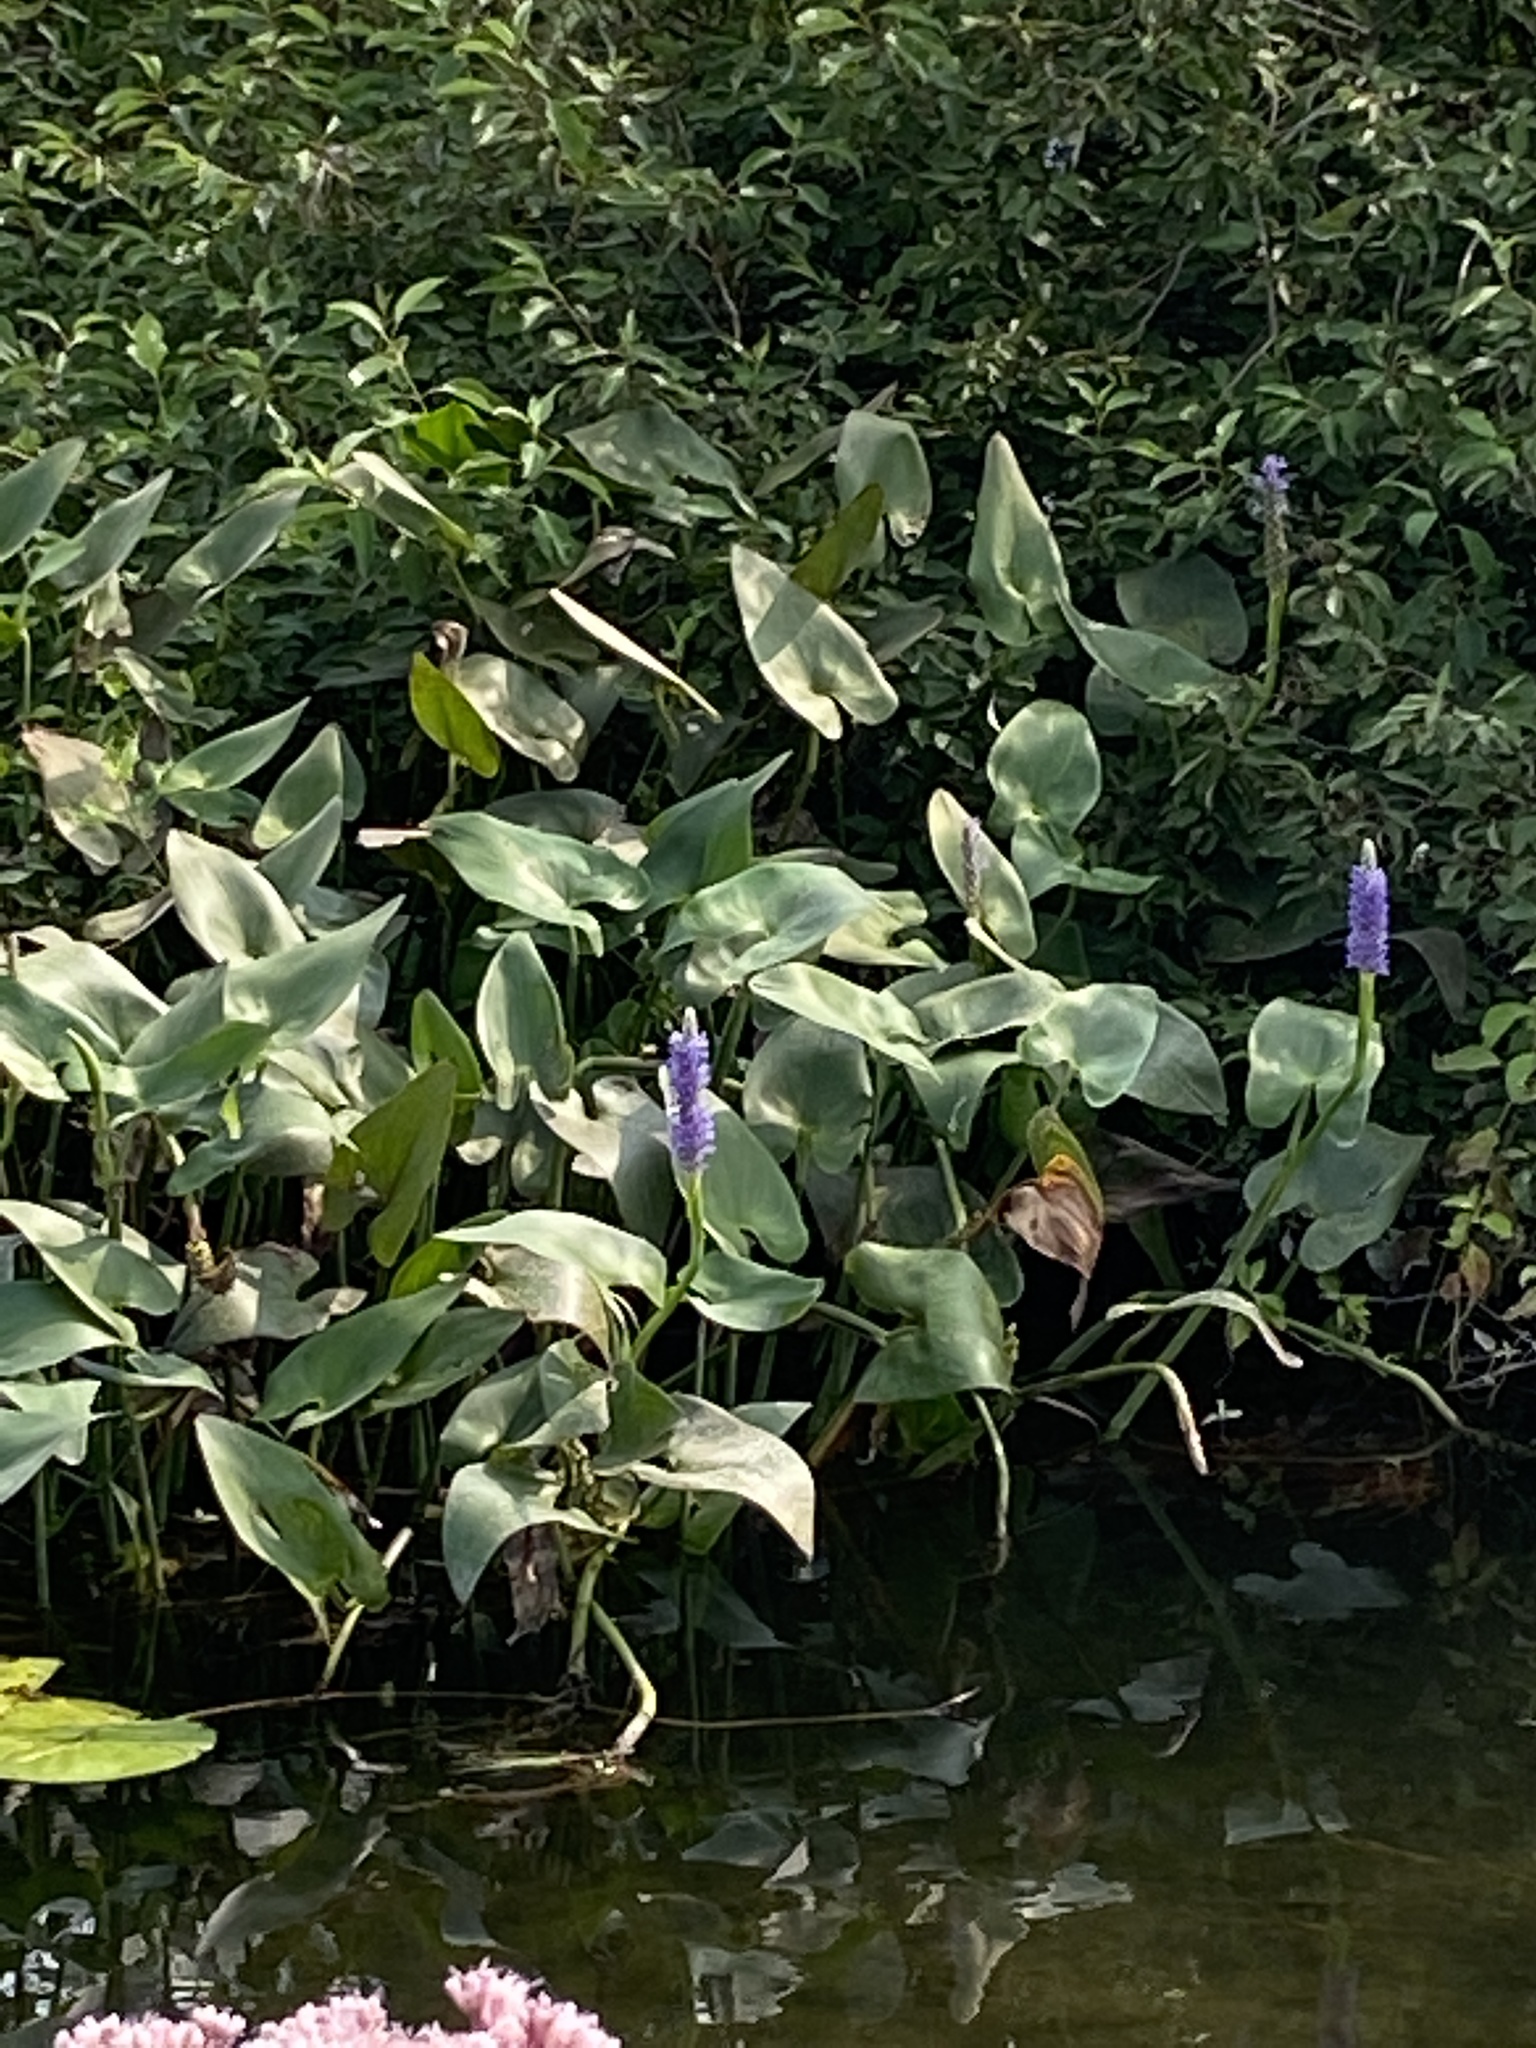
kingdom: Plantae
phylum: Tracheophyta
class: Liliopsida
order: Commelinales
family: Pontederiaceae
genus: Pontederia
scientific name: Pontederia cordata
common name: Pickerelweed
